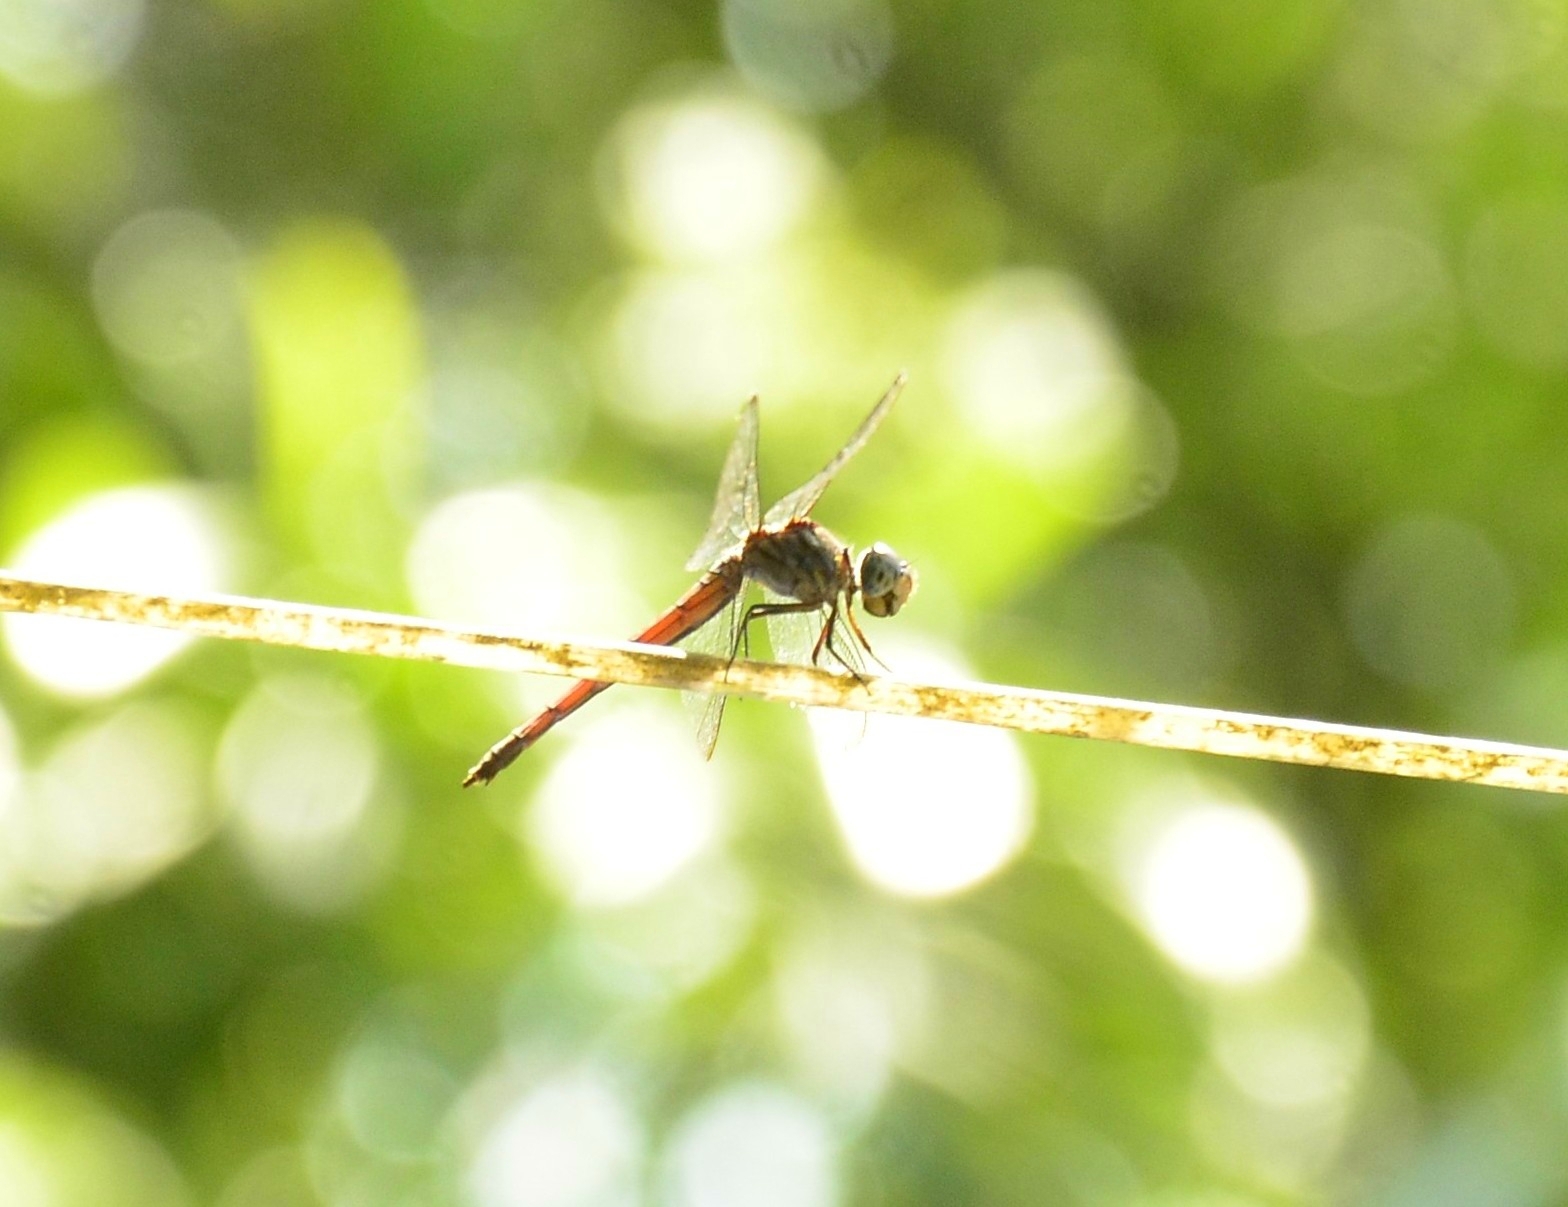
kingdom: Animalia
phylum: Arthropoda
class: Insecta
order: Odonata
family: Libellulidae
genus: Lathrecista
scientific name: Lathrecista asiatica
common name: Scarlet grenadier
